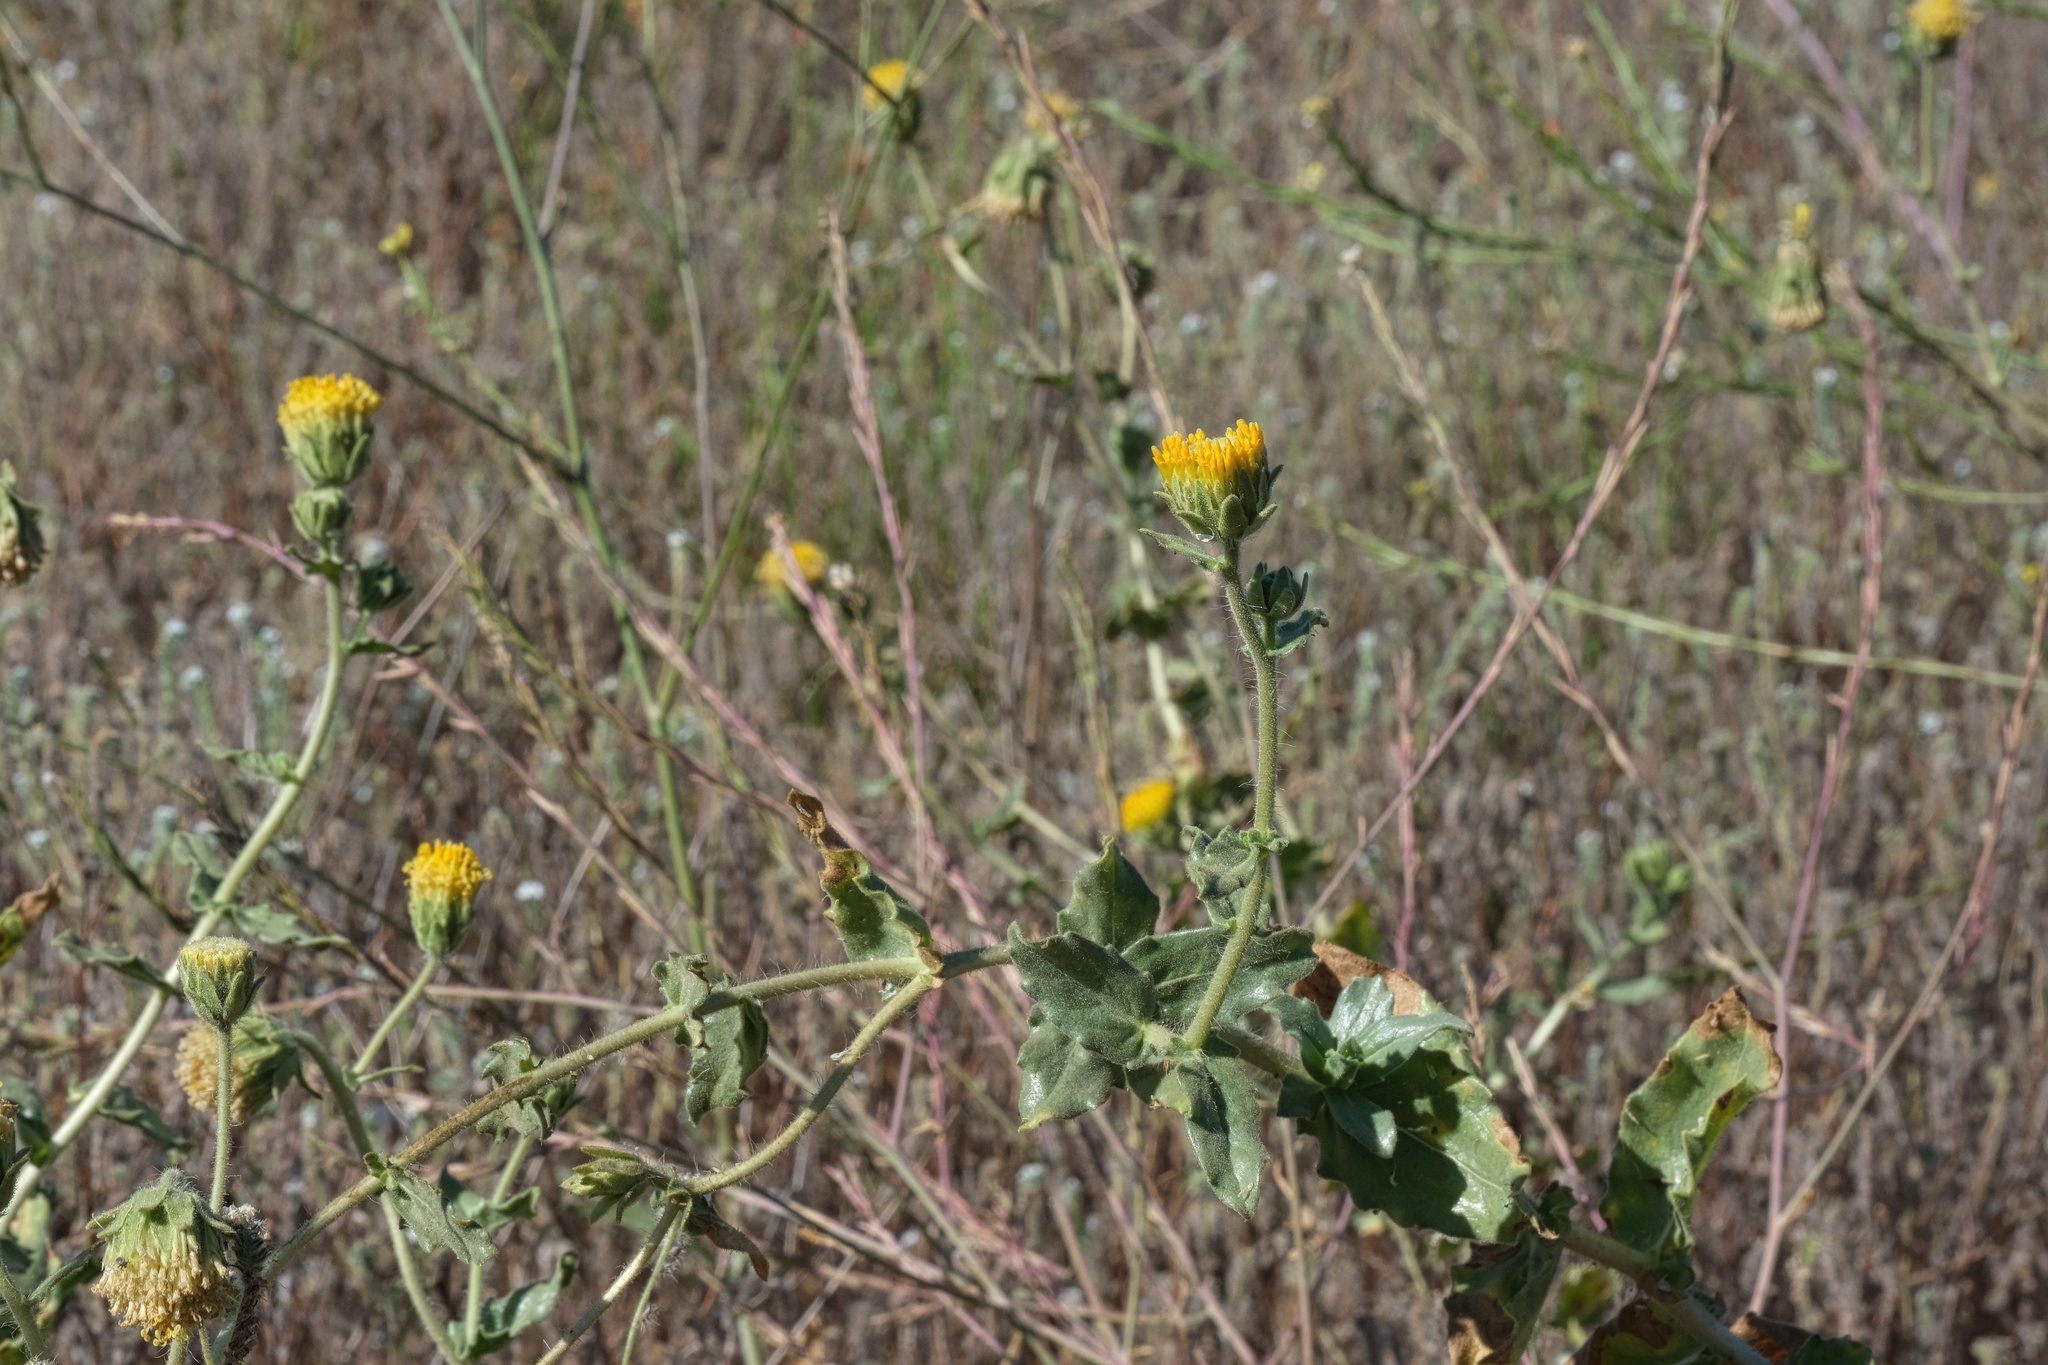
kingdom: Plantae
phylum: Tracheophyta
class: Magnoliopsida
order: Asterales
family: Asteraceae
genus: Geraea
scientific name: Geraea viscida
